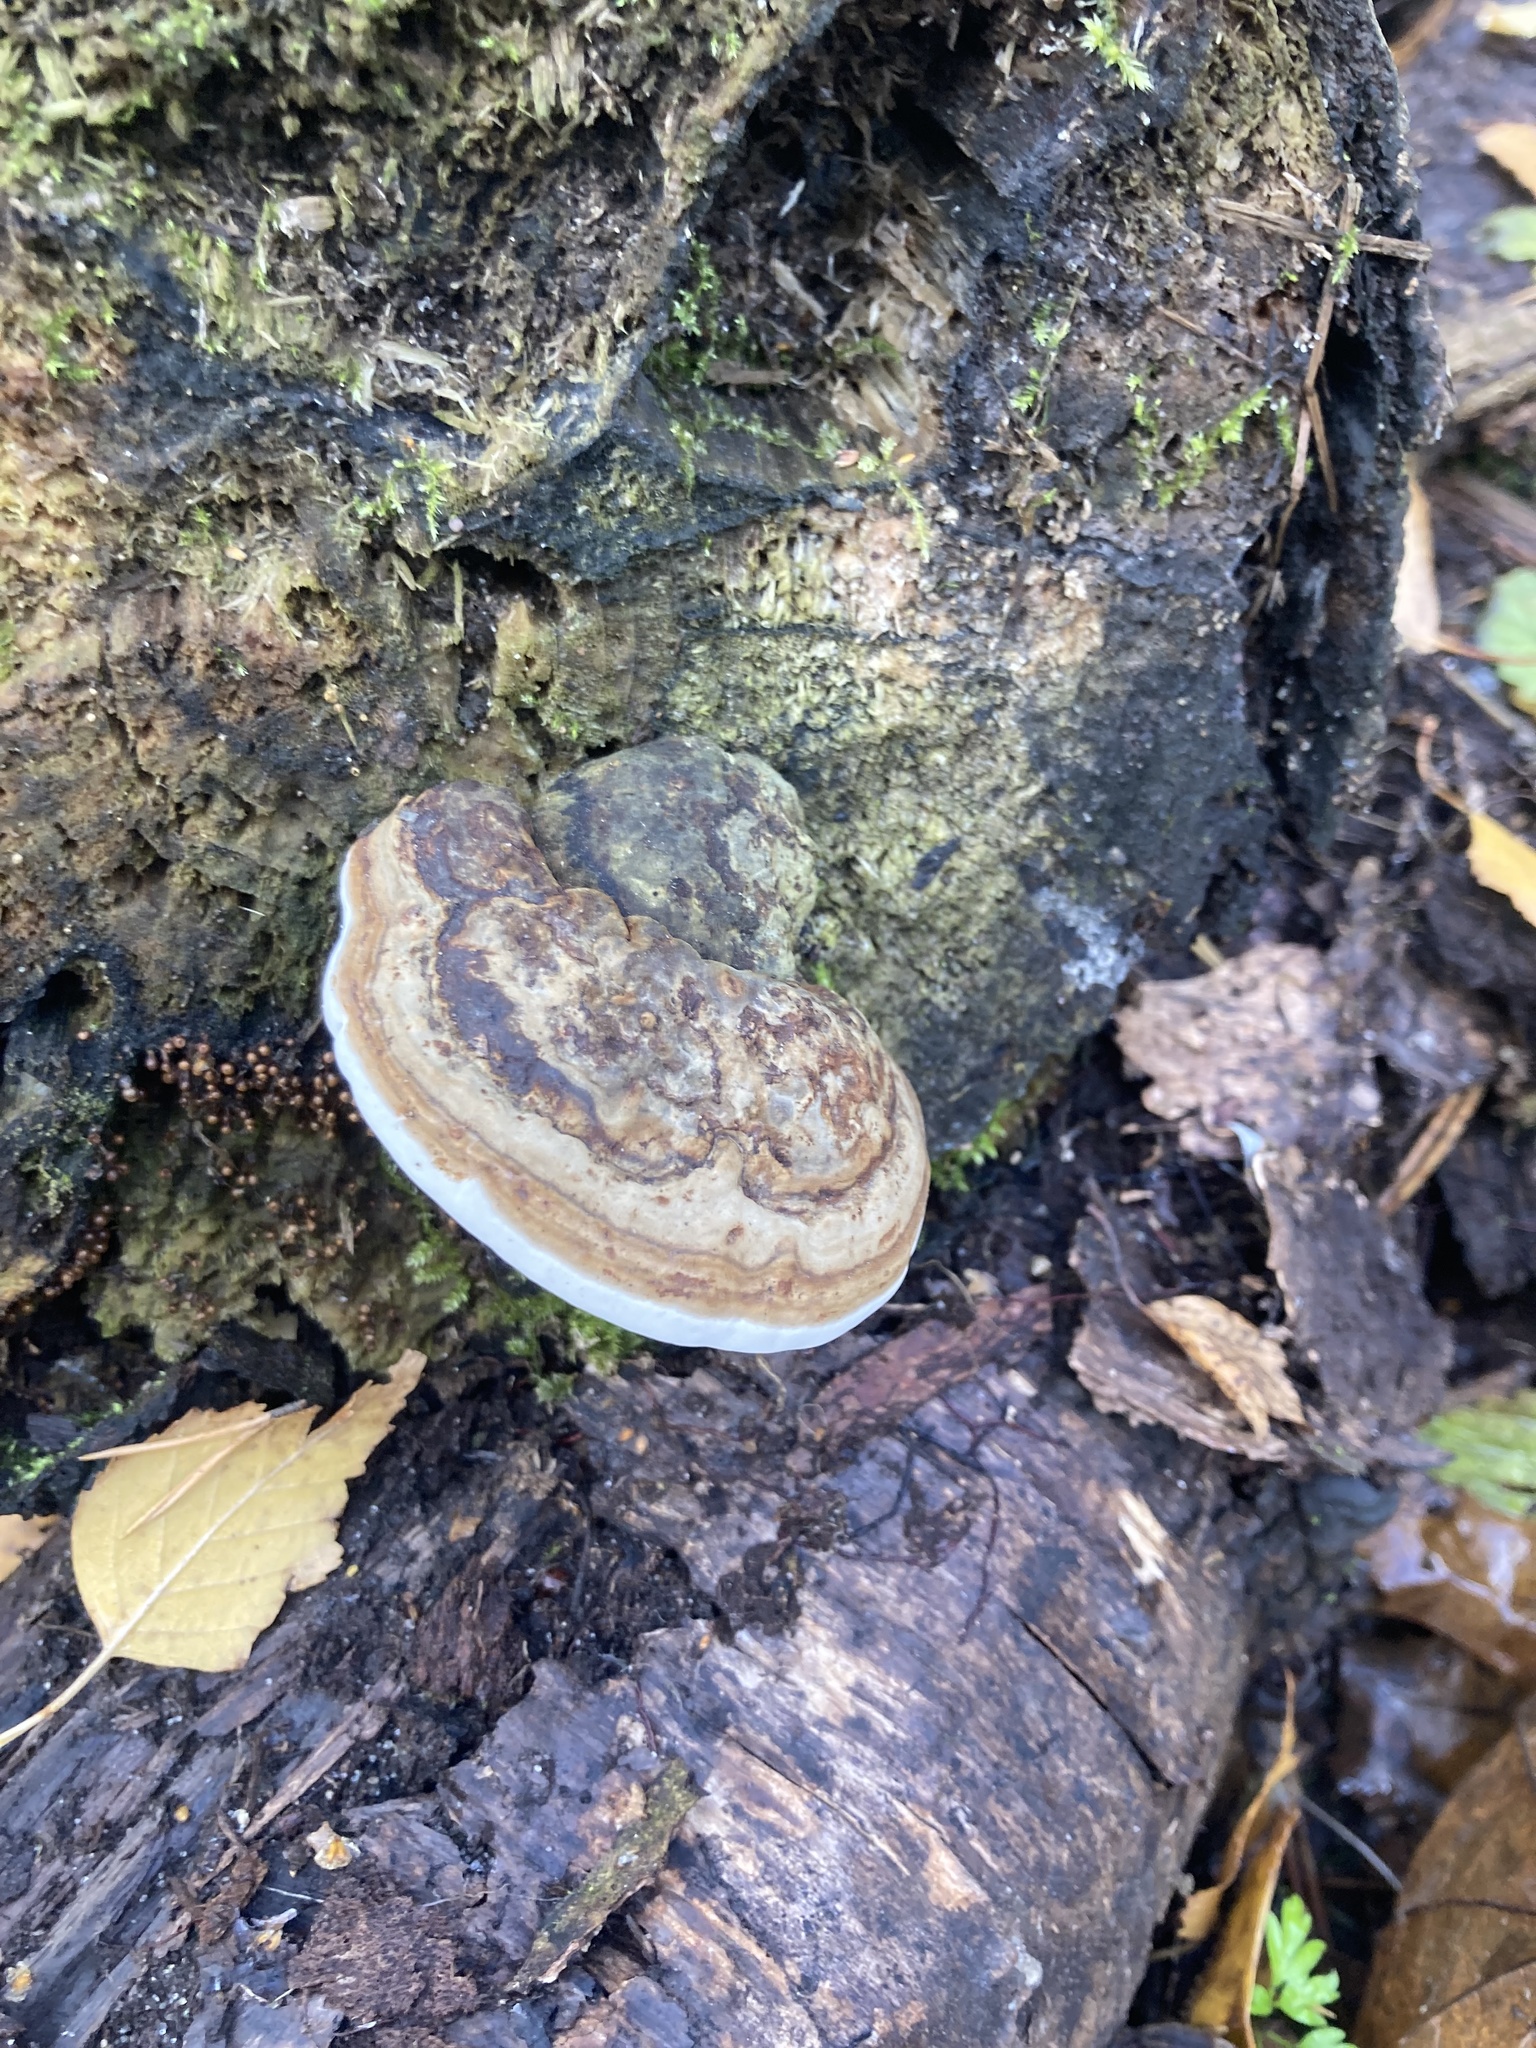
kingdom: Fungi
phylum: Basidiomycota
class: Agaricomycetes
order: Polyporales
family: Polyporaceae
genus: Fomes
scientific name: Fomes fomentarius
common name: Hoof fungus
